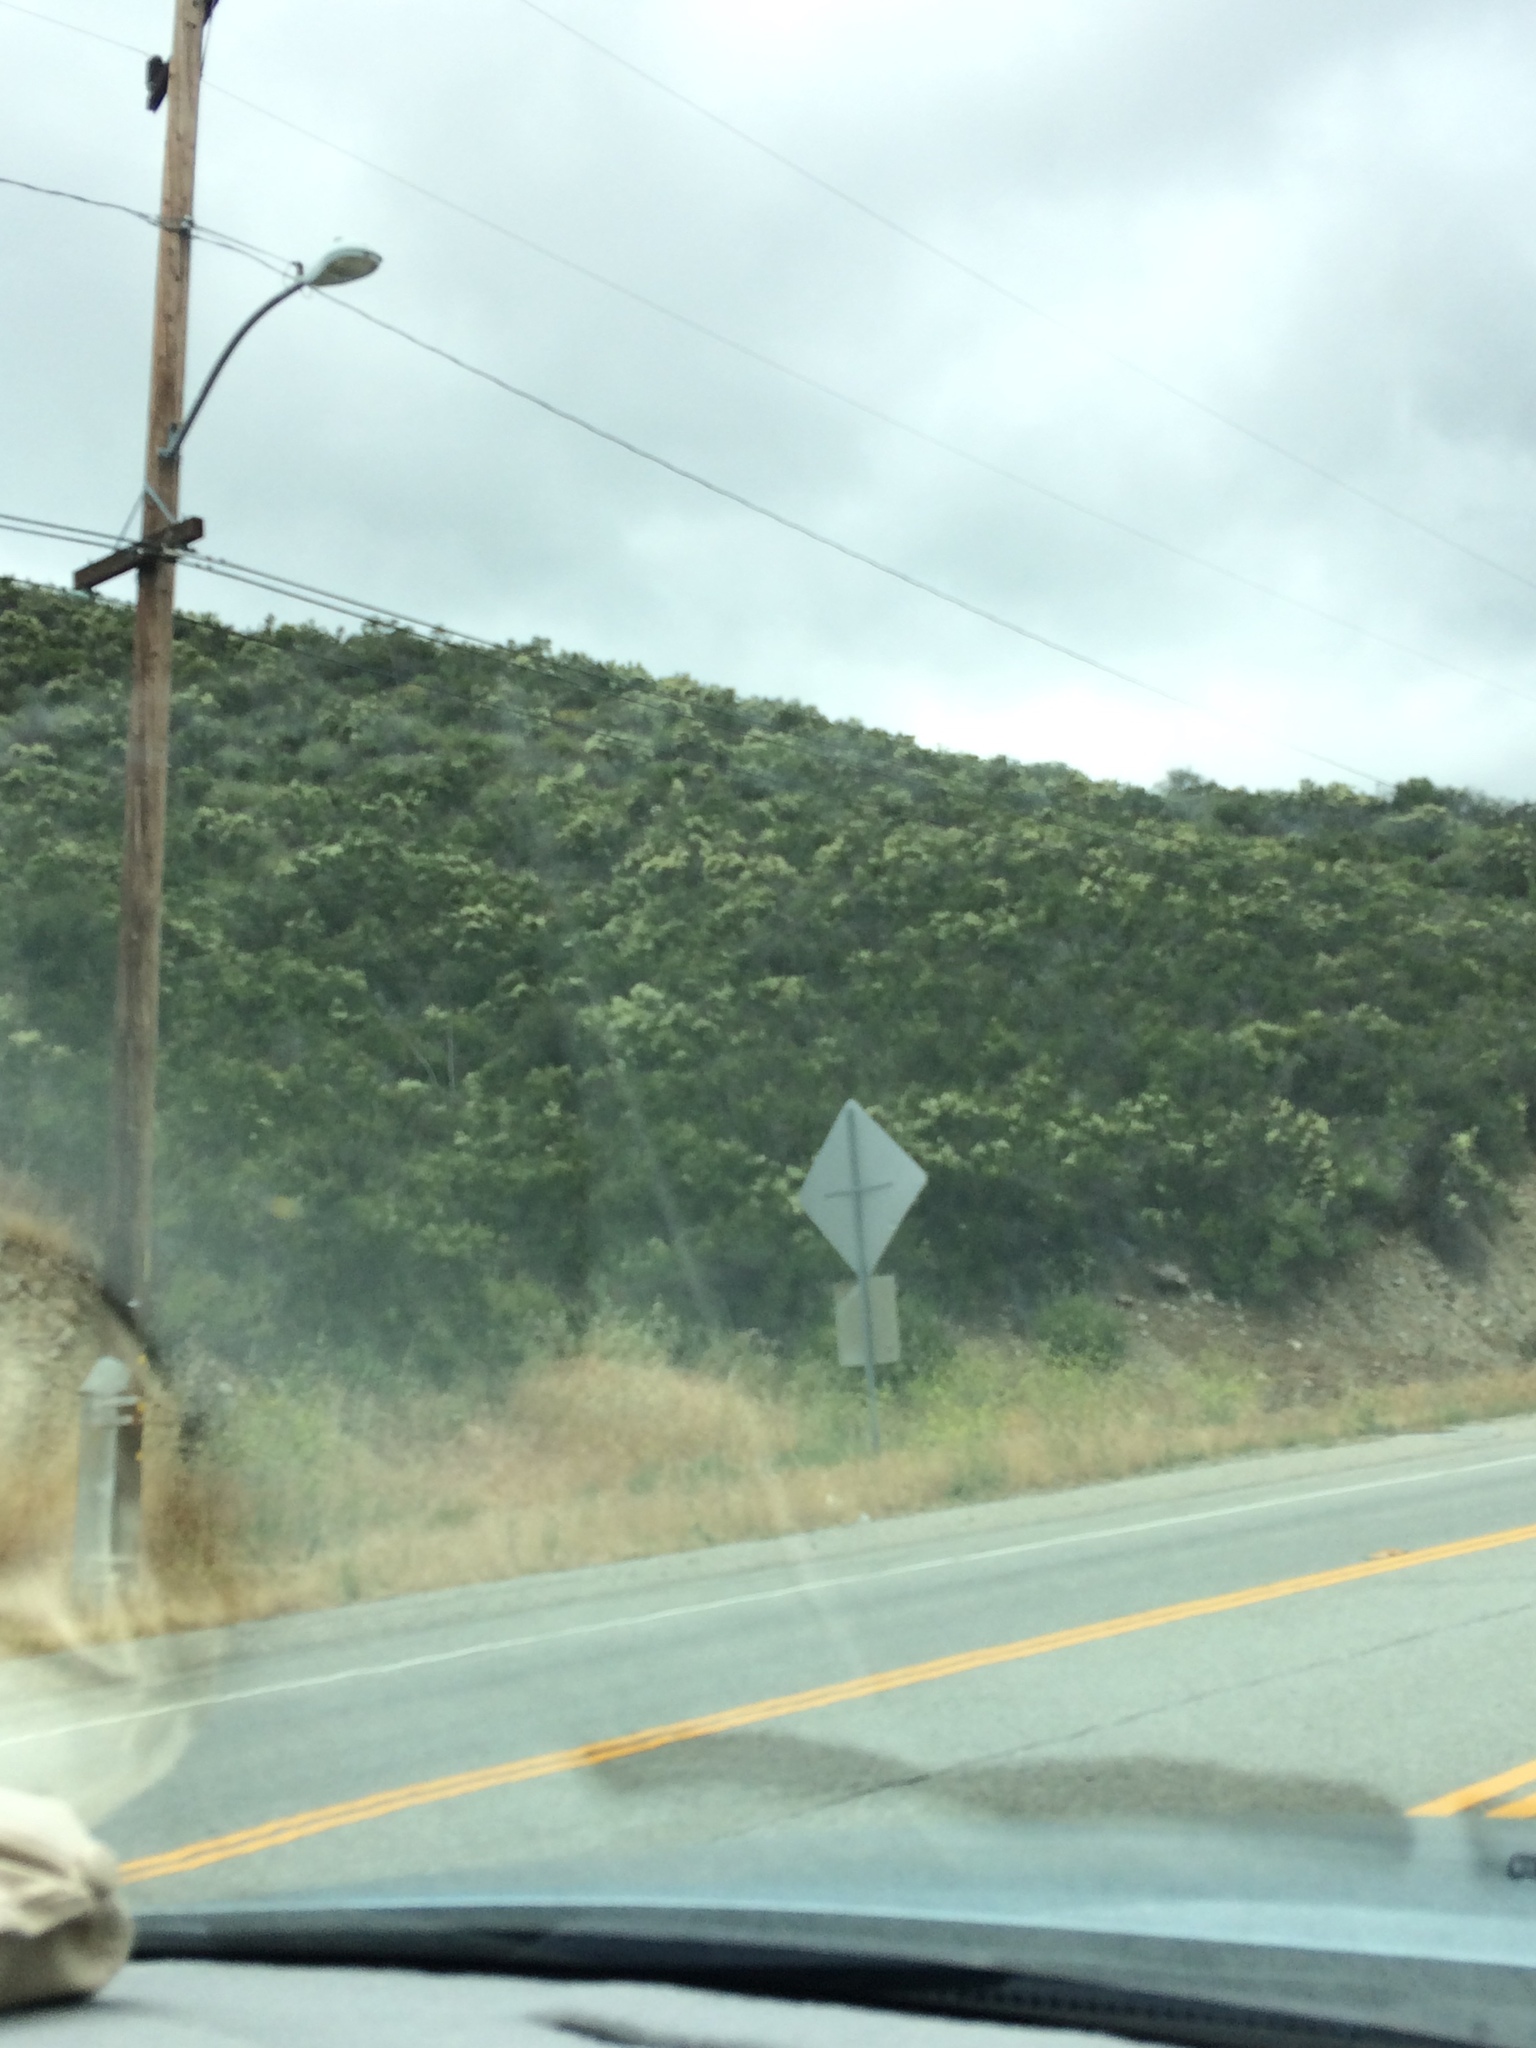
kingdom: Plantae
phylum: Tracheophyta
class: Magnoliopsida
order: Rosales
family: Rosaceae
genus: Adenostoma
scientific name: Adenostoma fasciculatum
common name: Chamise
